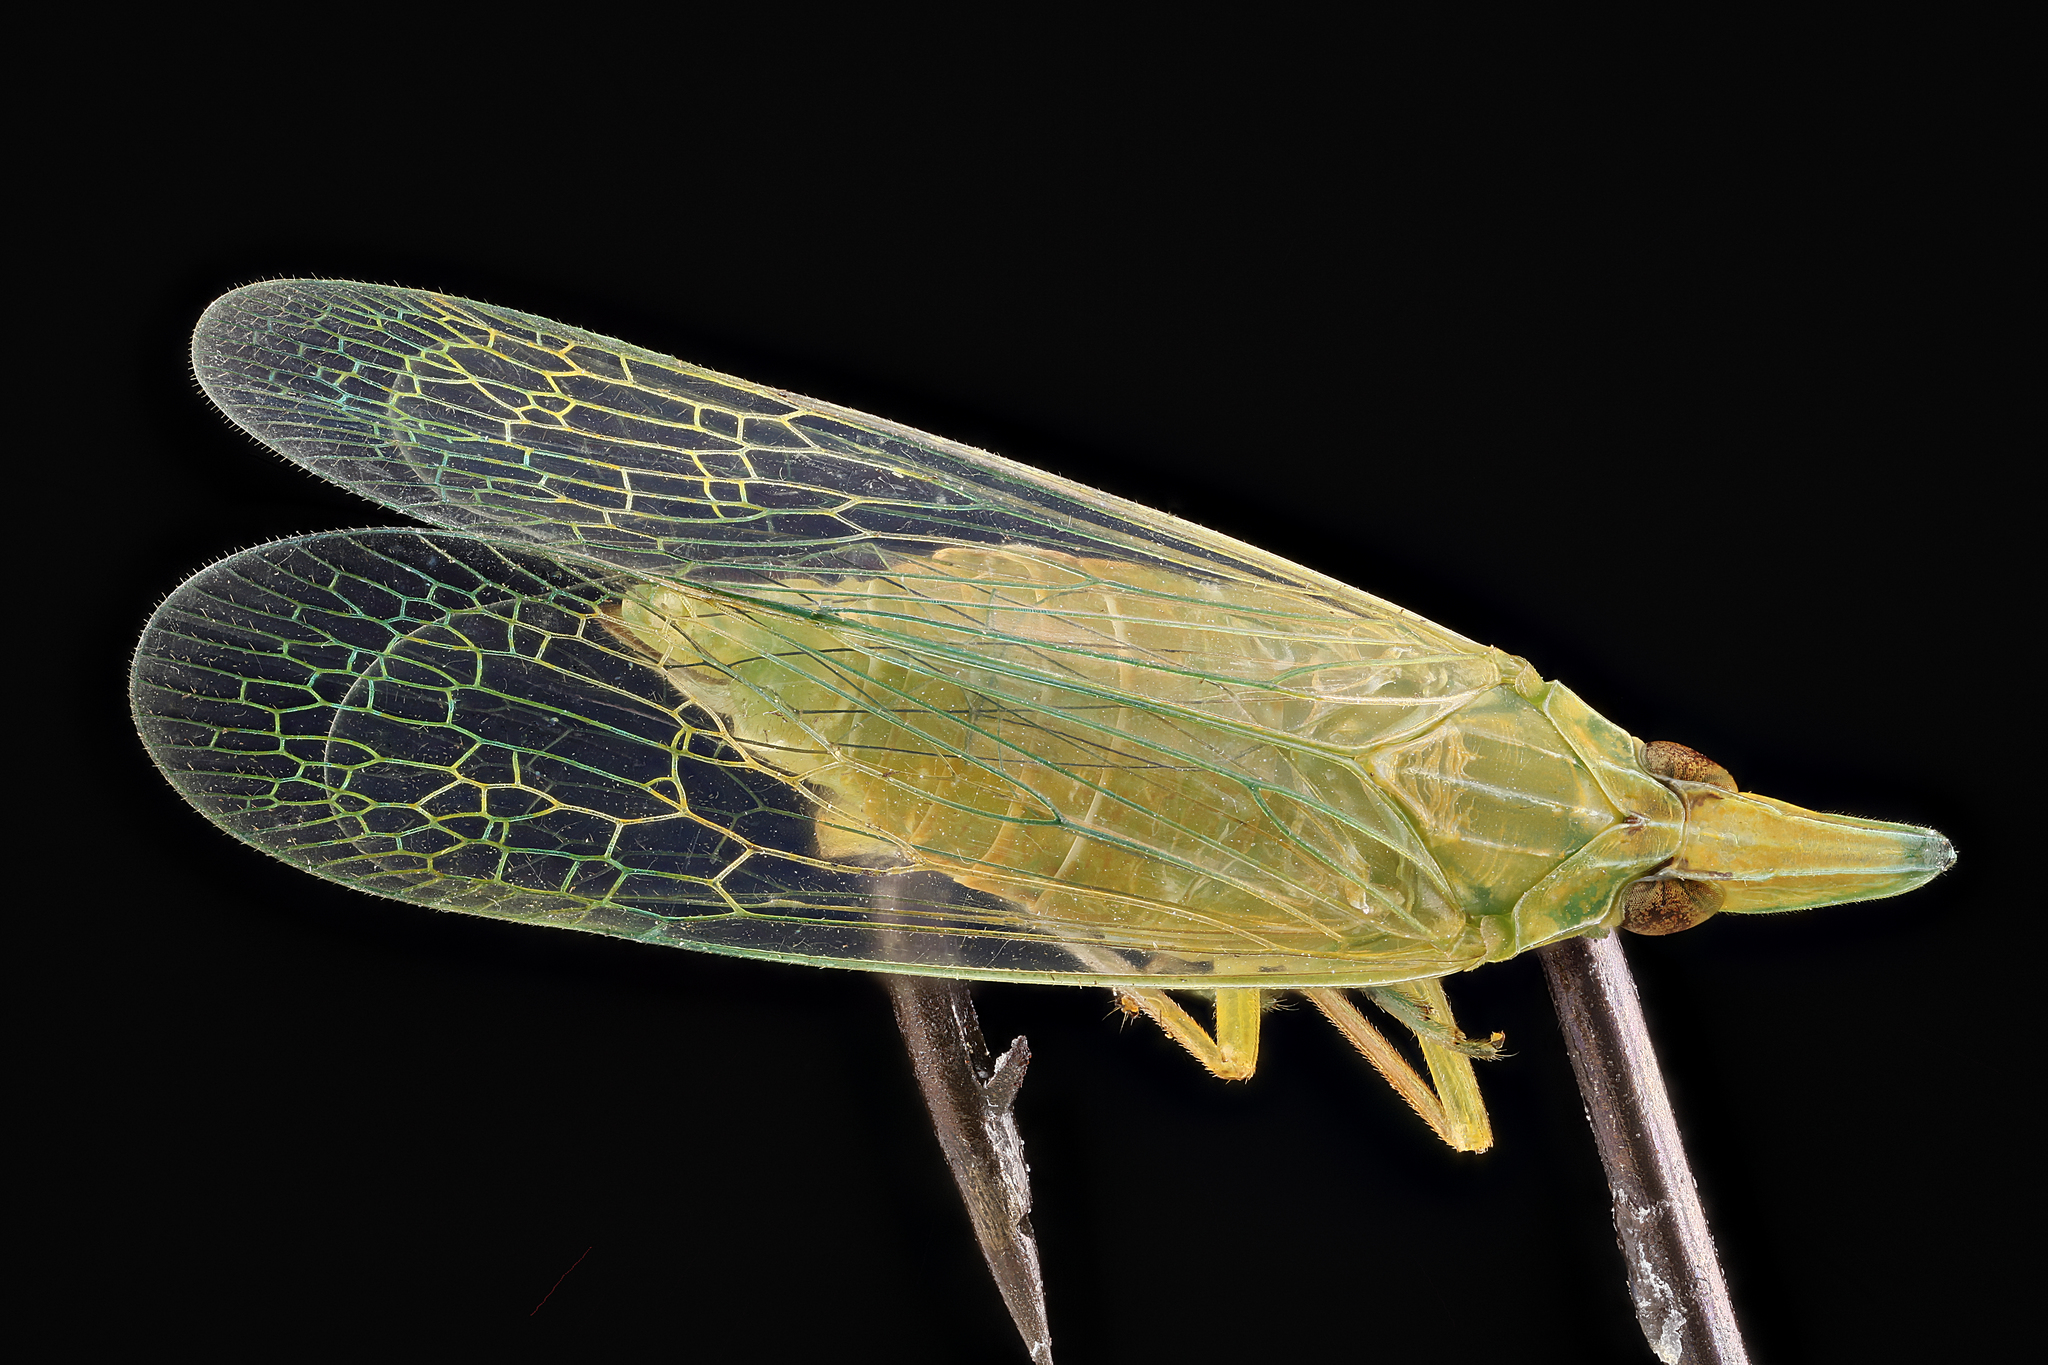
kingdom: Animalia
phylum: Arthropoda
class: Insecta
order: Hemiptera
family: Dictyopharidae
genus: Rhynchomitra
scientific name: Rhynchomitra microrhina
